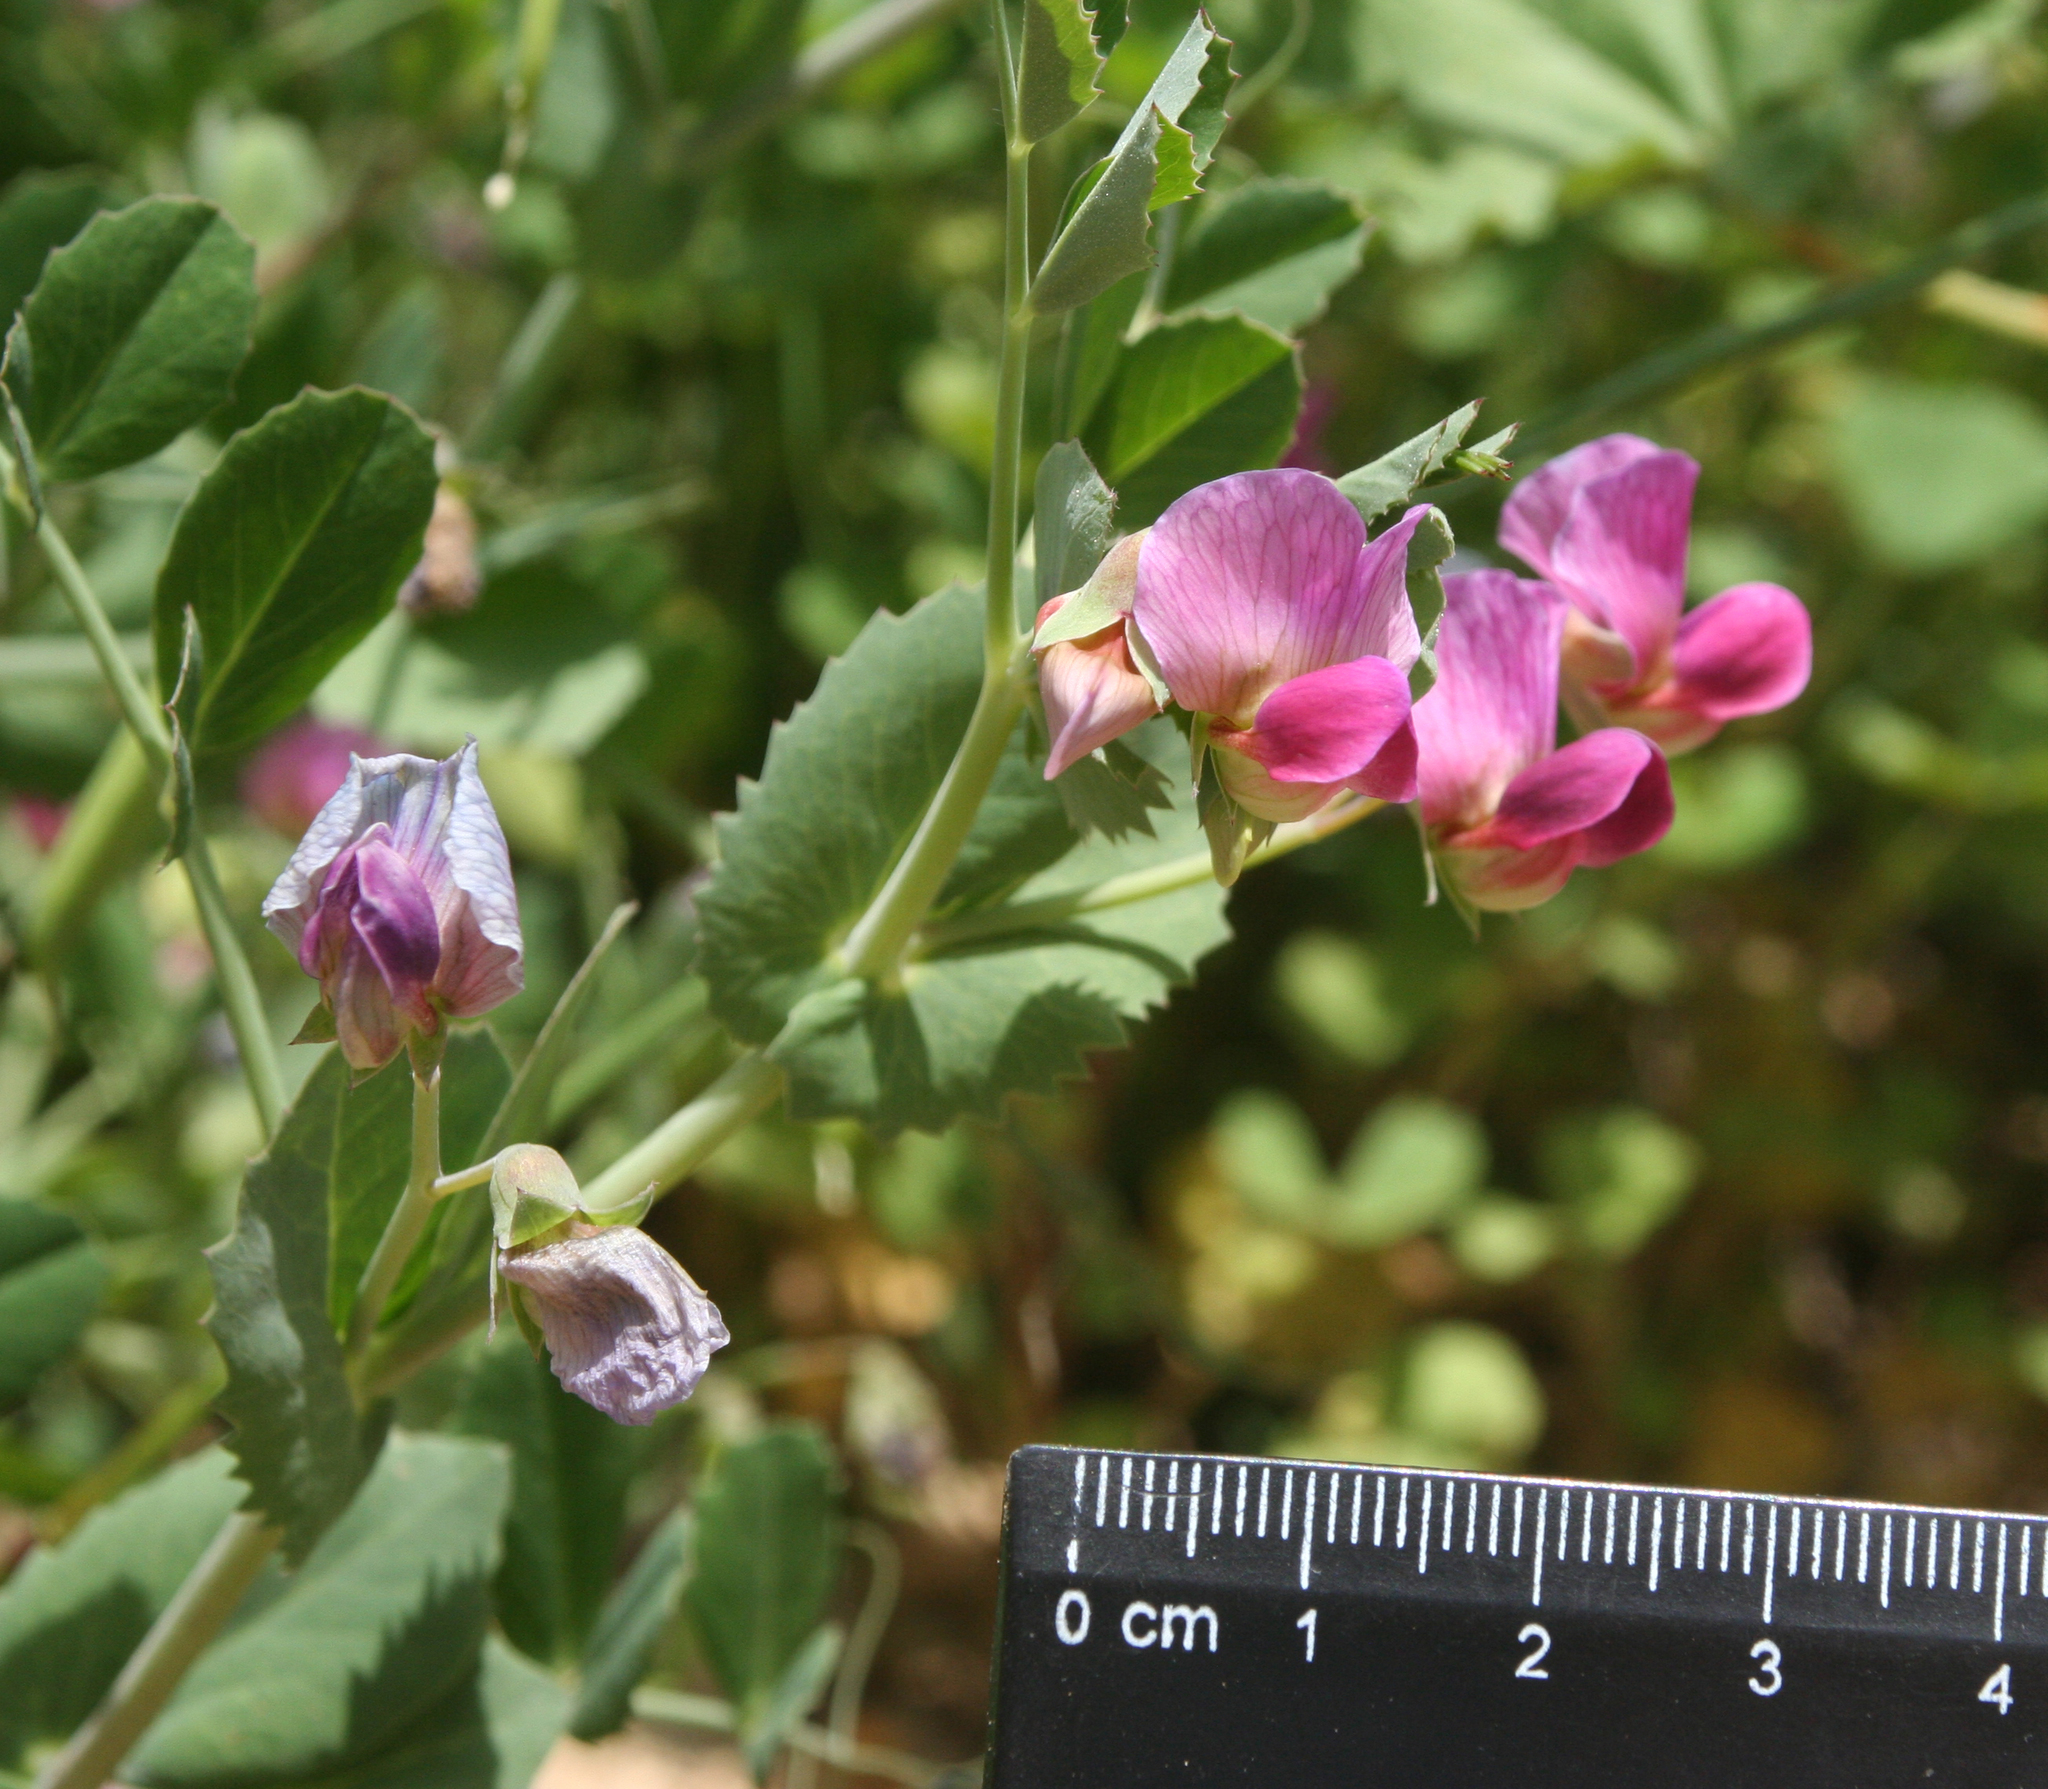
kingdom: Plantae
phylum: Tracheophyta
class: Magnoliopsida
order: Fabales
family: Fabaceae
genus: Lathyrus
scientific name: Lathyrus oleraceus
